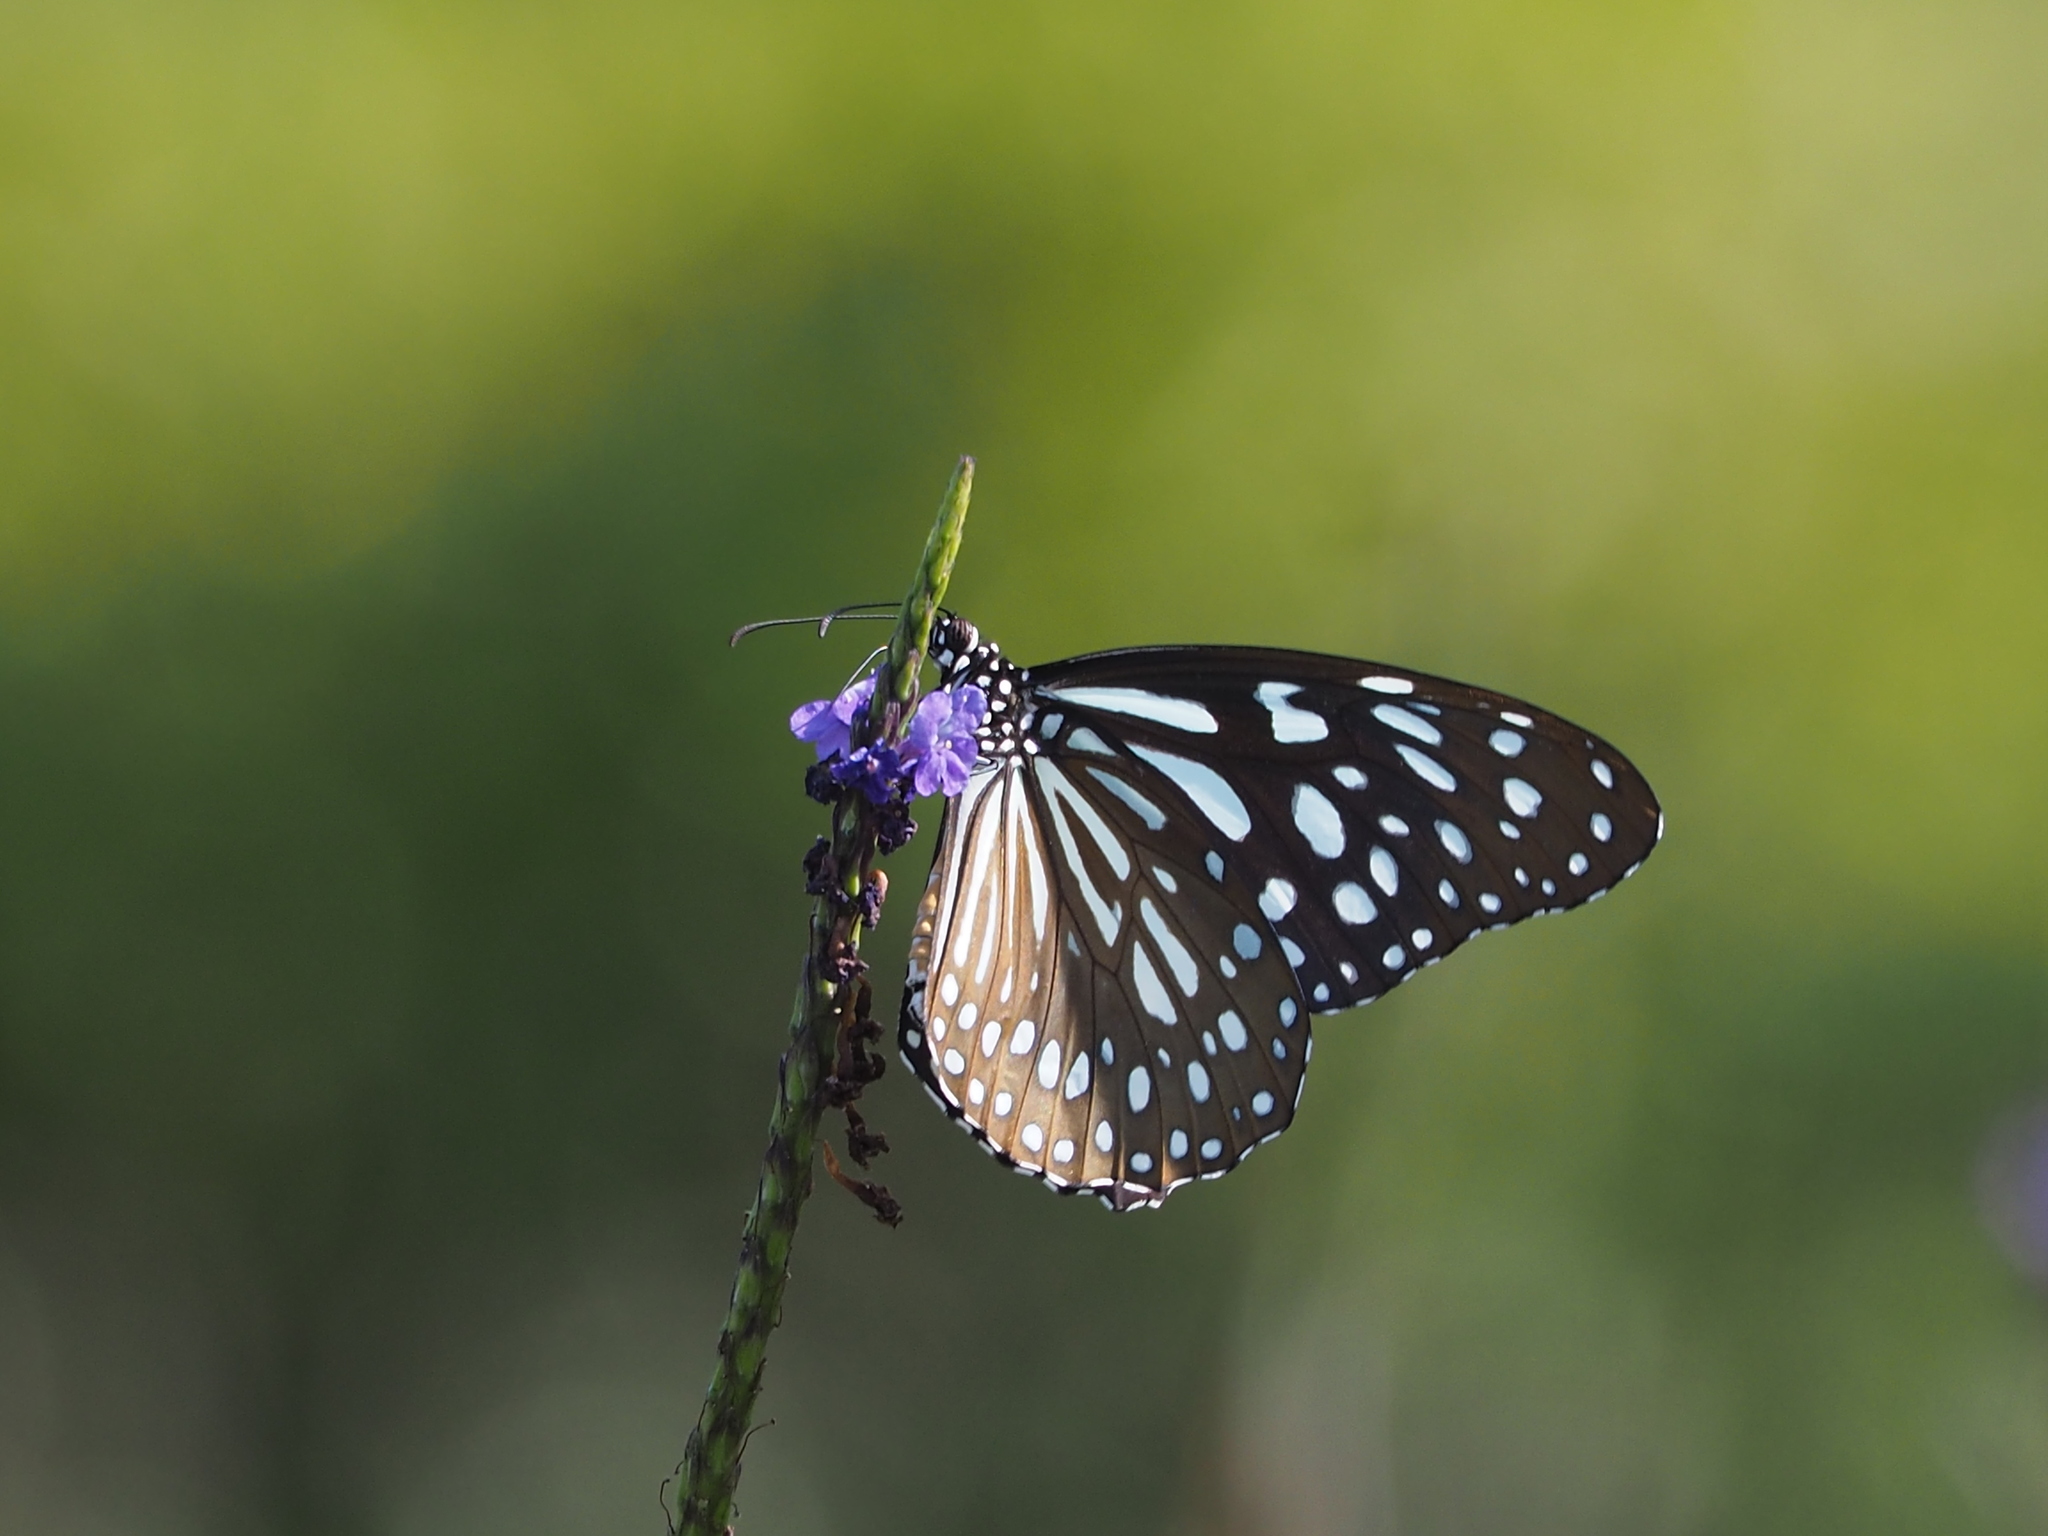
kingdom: Animalia
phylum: Arthropoda
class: Insecta
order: Lepidoptera
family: Nymphalidae
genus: Tirumala
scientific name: Tirumala limniace
